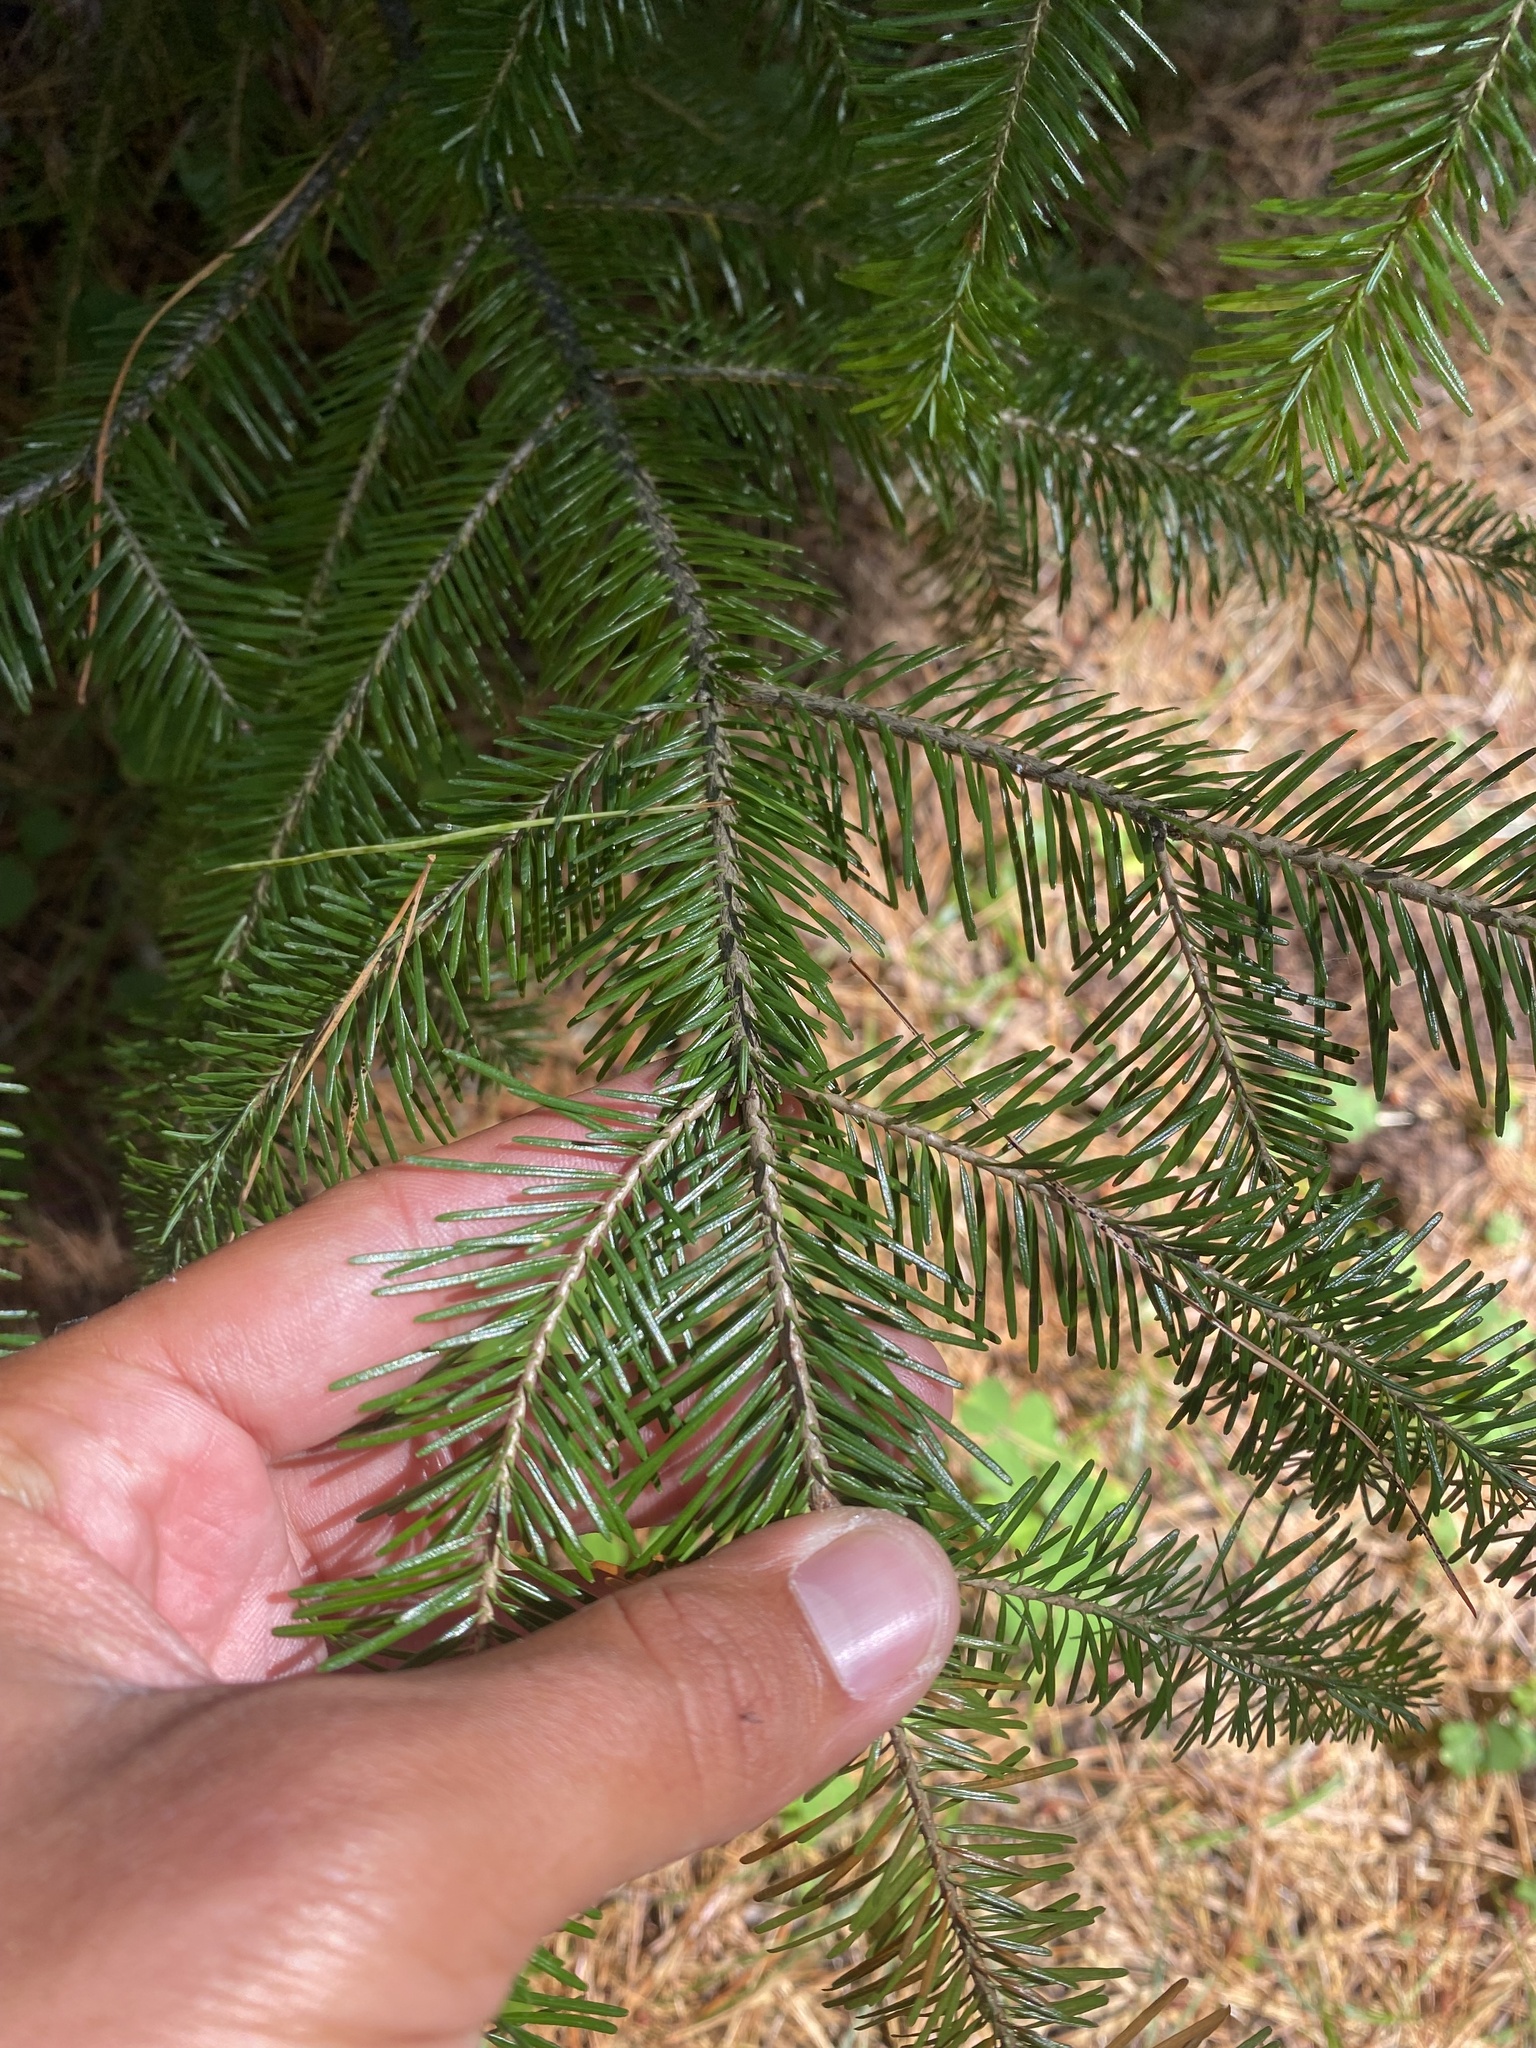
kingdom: Plantae
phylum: Tracheophyta
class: Pinopsida
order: Pinales
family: Pinaceae
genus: Abies
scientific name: Abies sibirica
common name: Siberian fir
